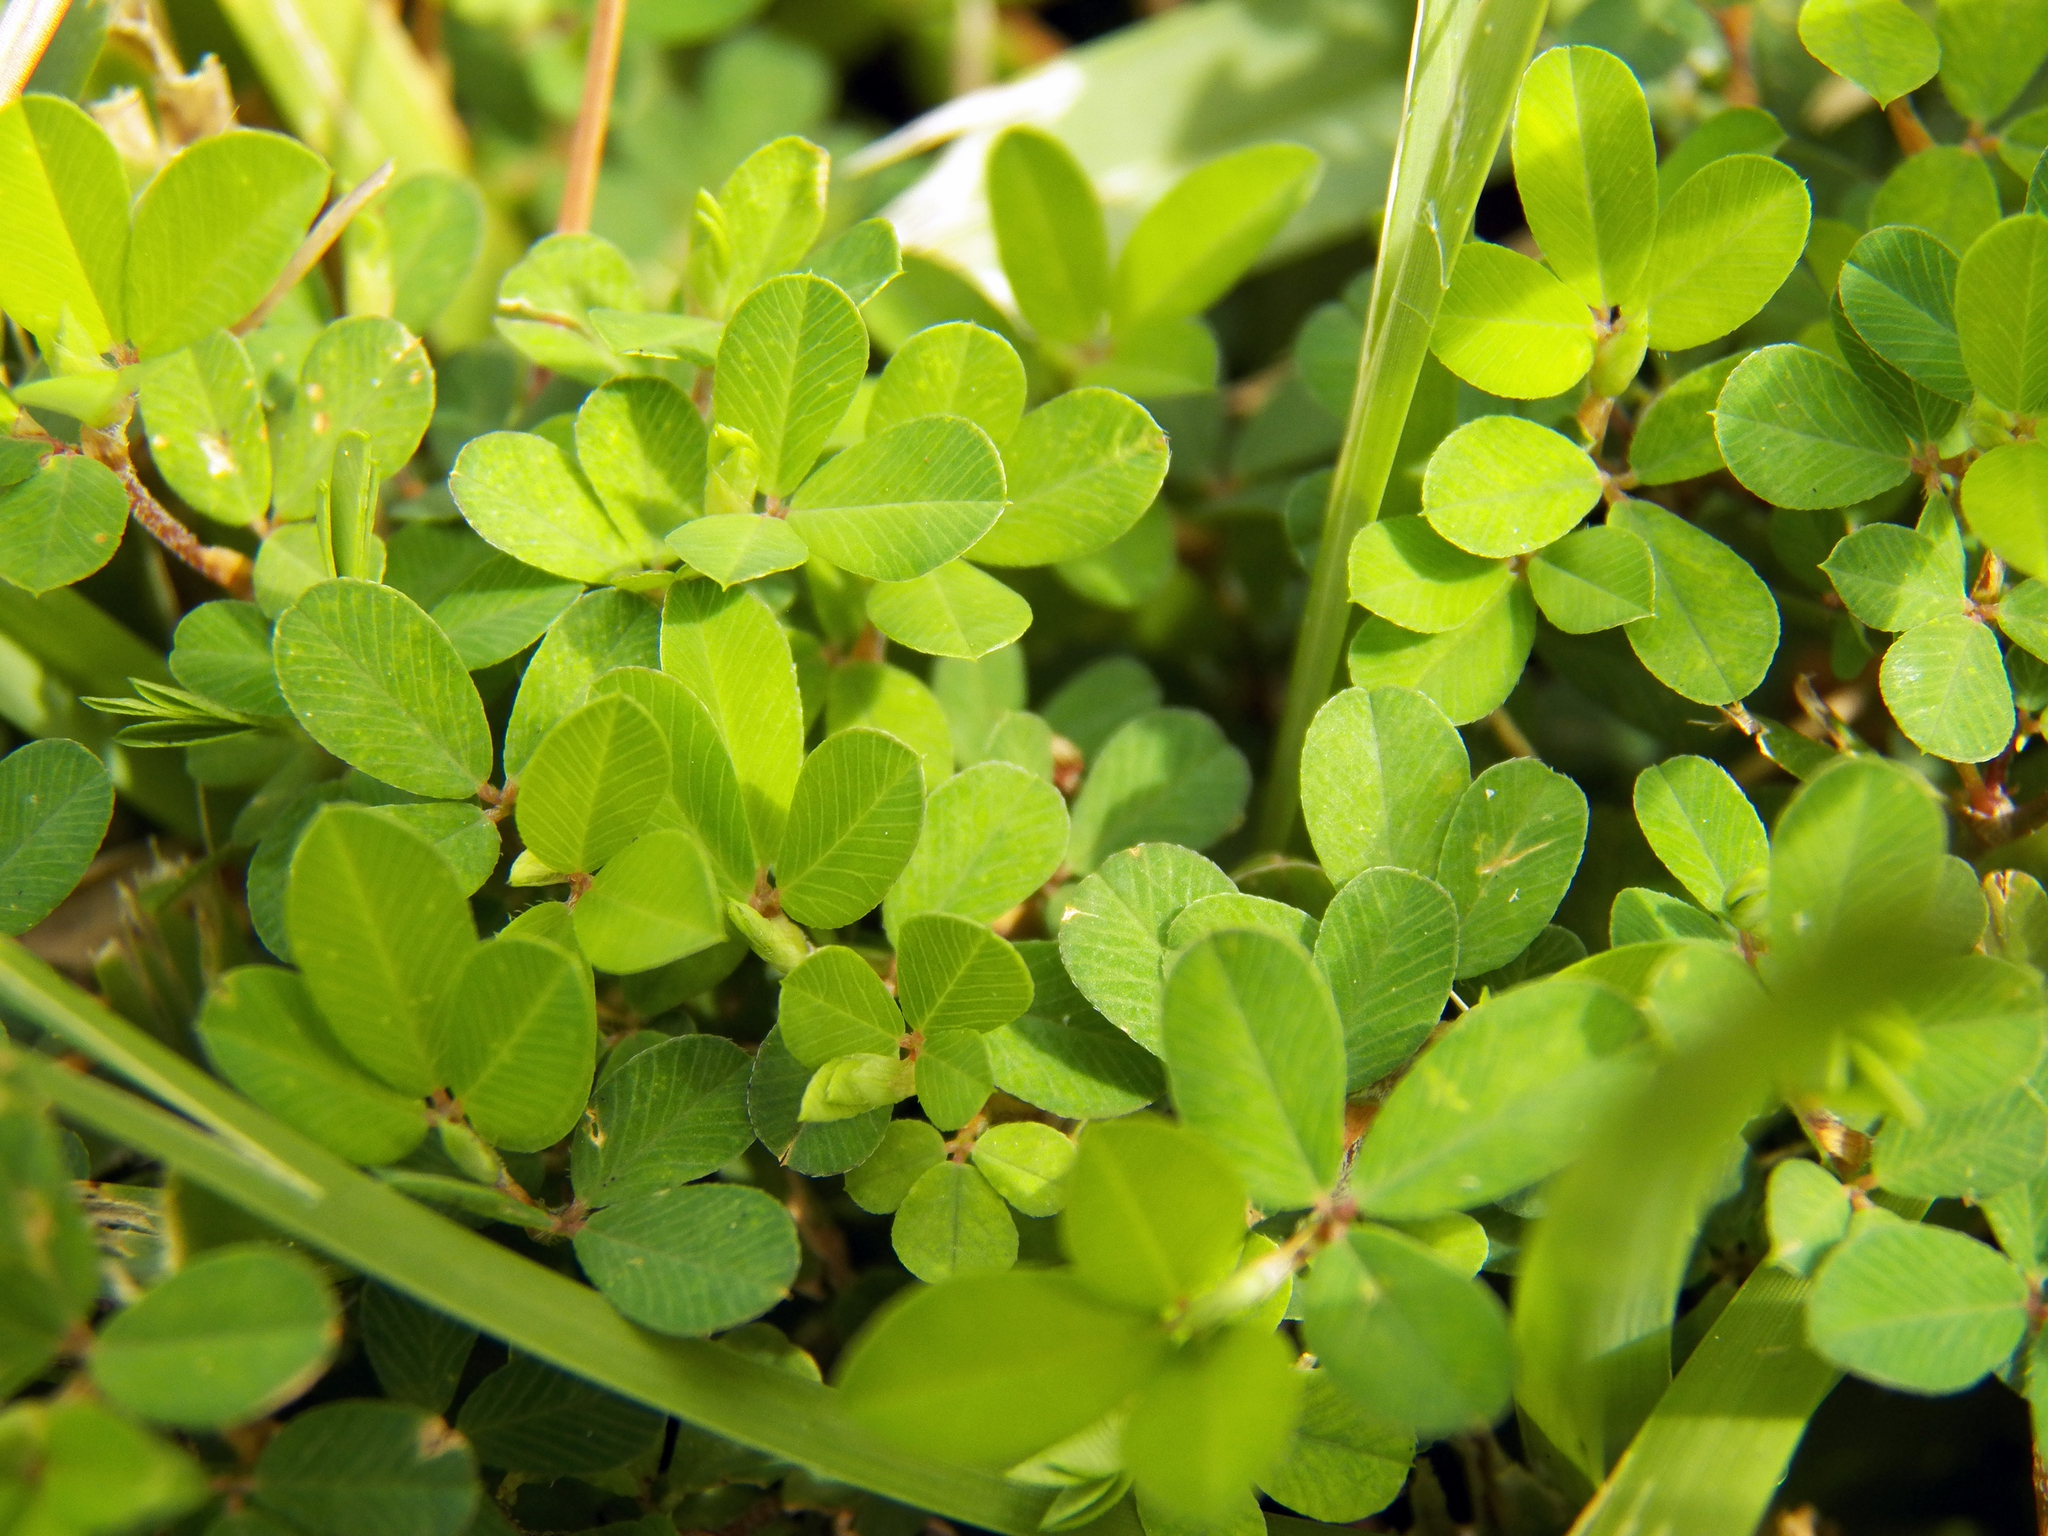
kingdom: Plantae
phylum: Tracheophyta
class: Magnoliopsida
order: Fabales
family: Fabaceae
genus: Kummerowia
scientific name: Kummerowia striata
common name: Japanese clover
